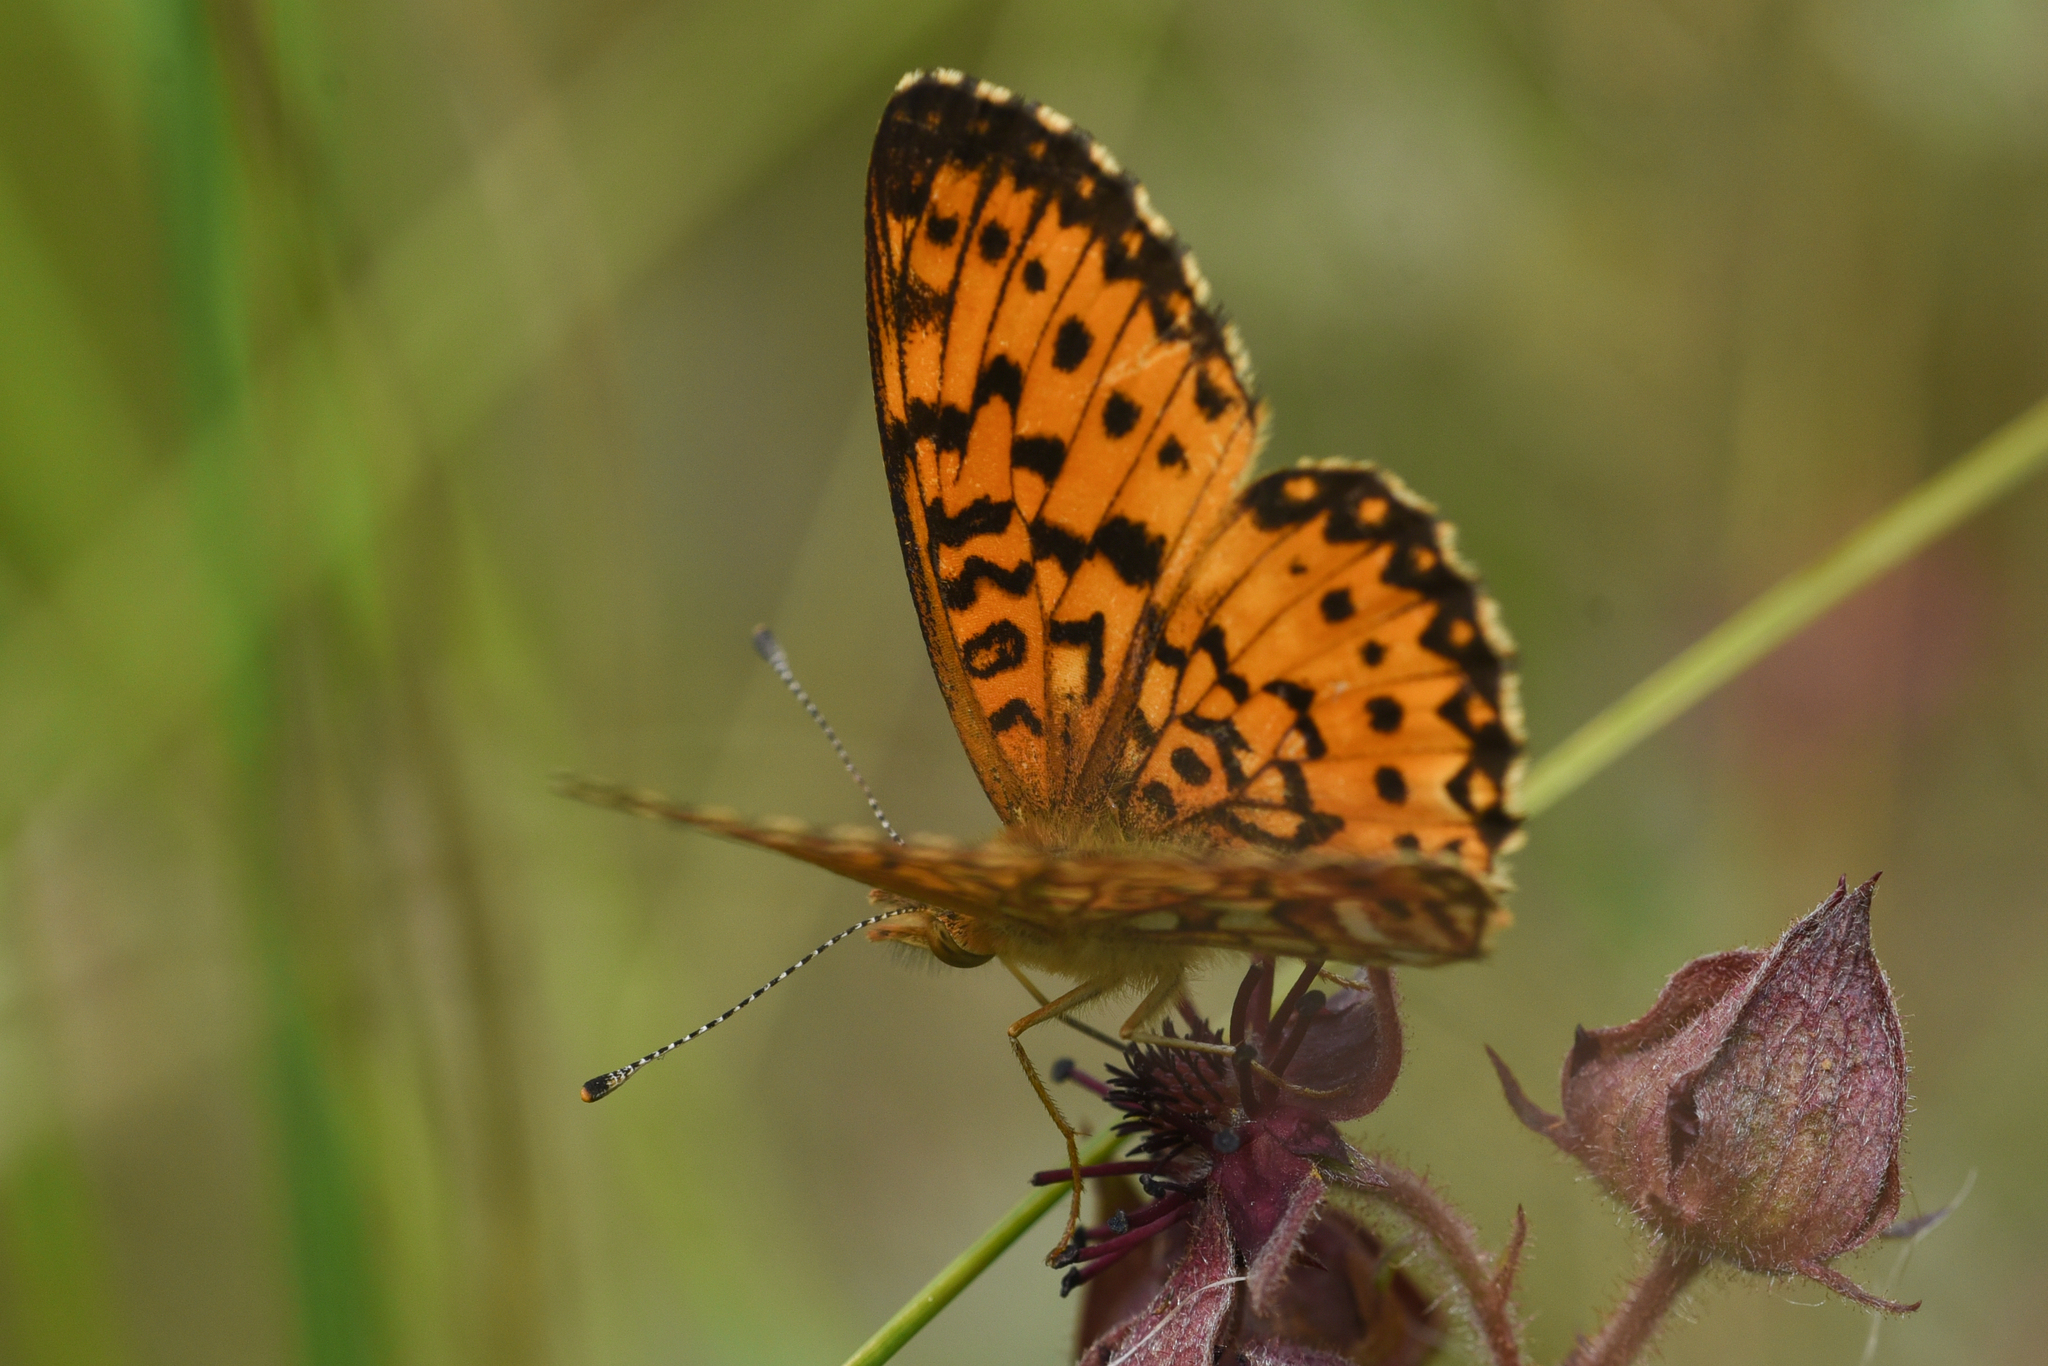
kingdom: Animalia
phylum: Arthropoda
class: Insecta
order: Lepidoptera
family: Nymphalidae
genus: Boloria
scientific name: Boloria
